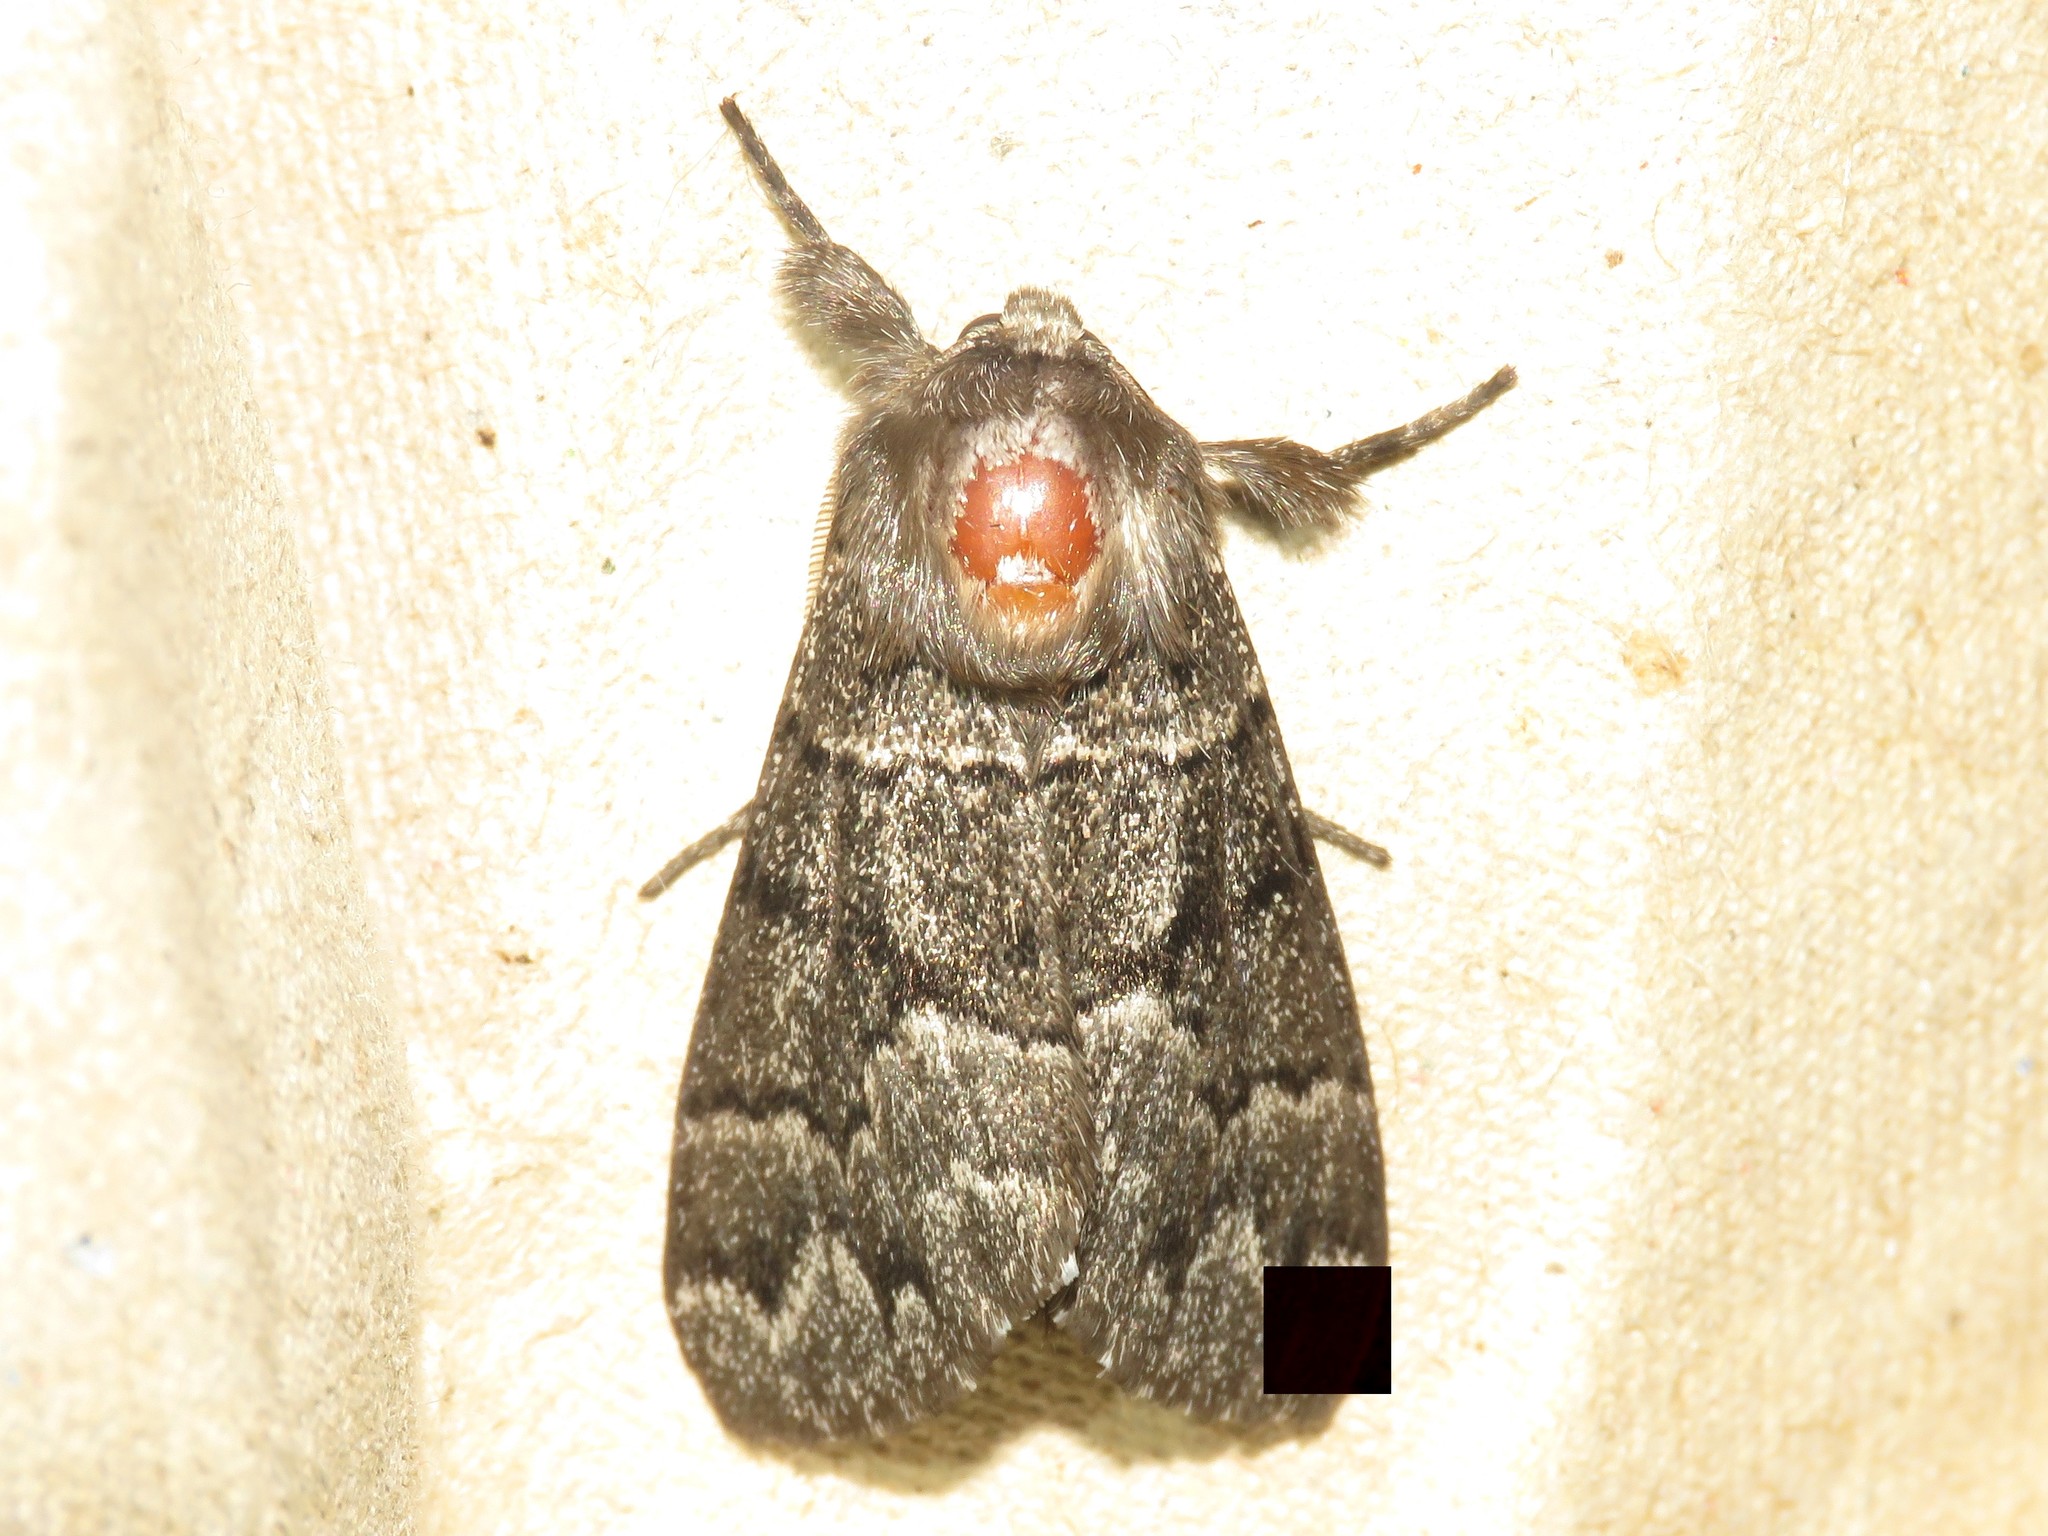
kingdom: Animalia
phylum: Arthropoda
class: Insecta
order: Lepidoptera
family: Noctuidae
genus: Panthea
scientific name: Panthea furcilla
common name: Eastern panthea moth
